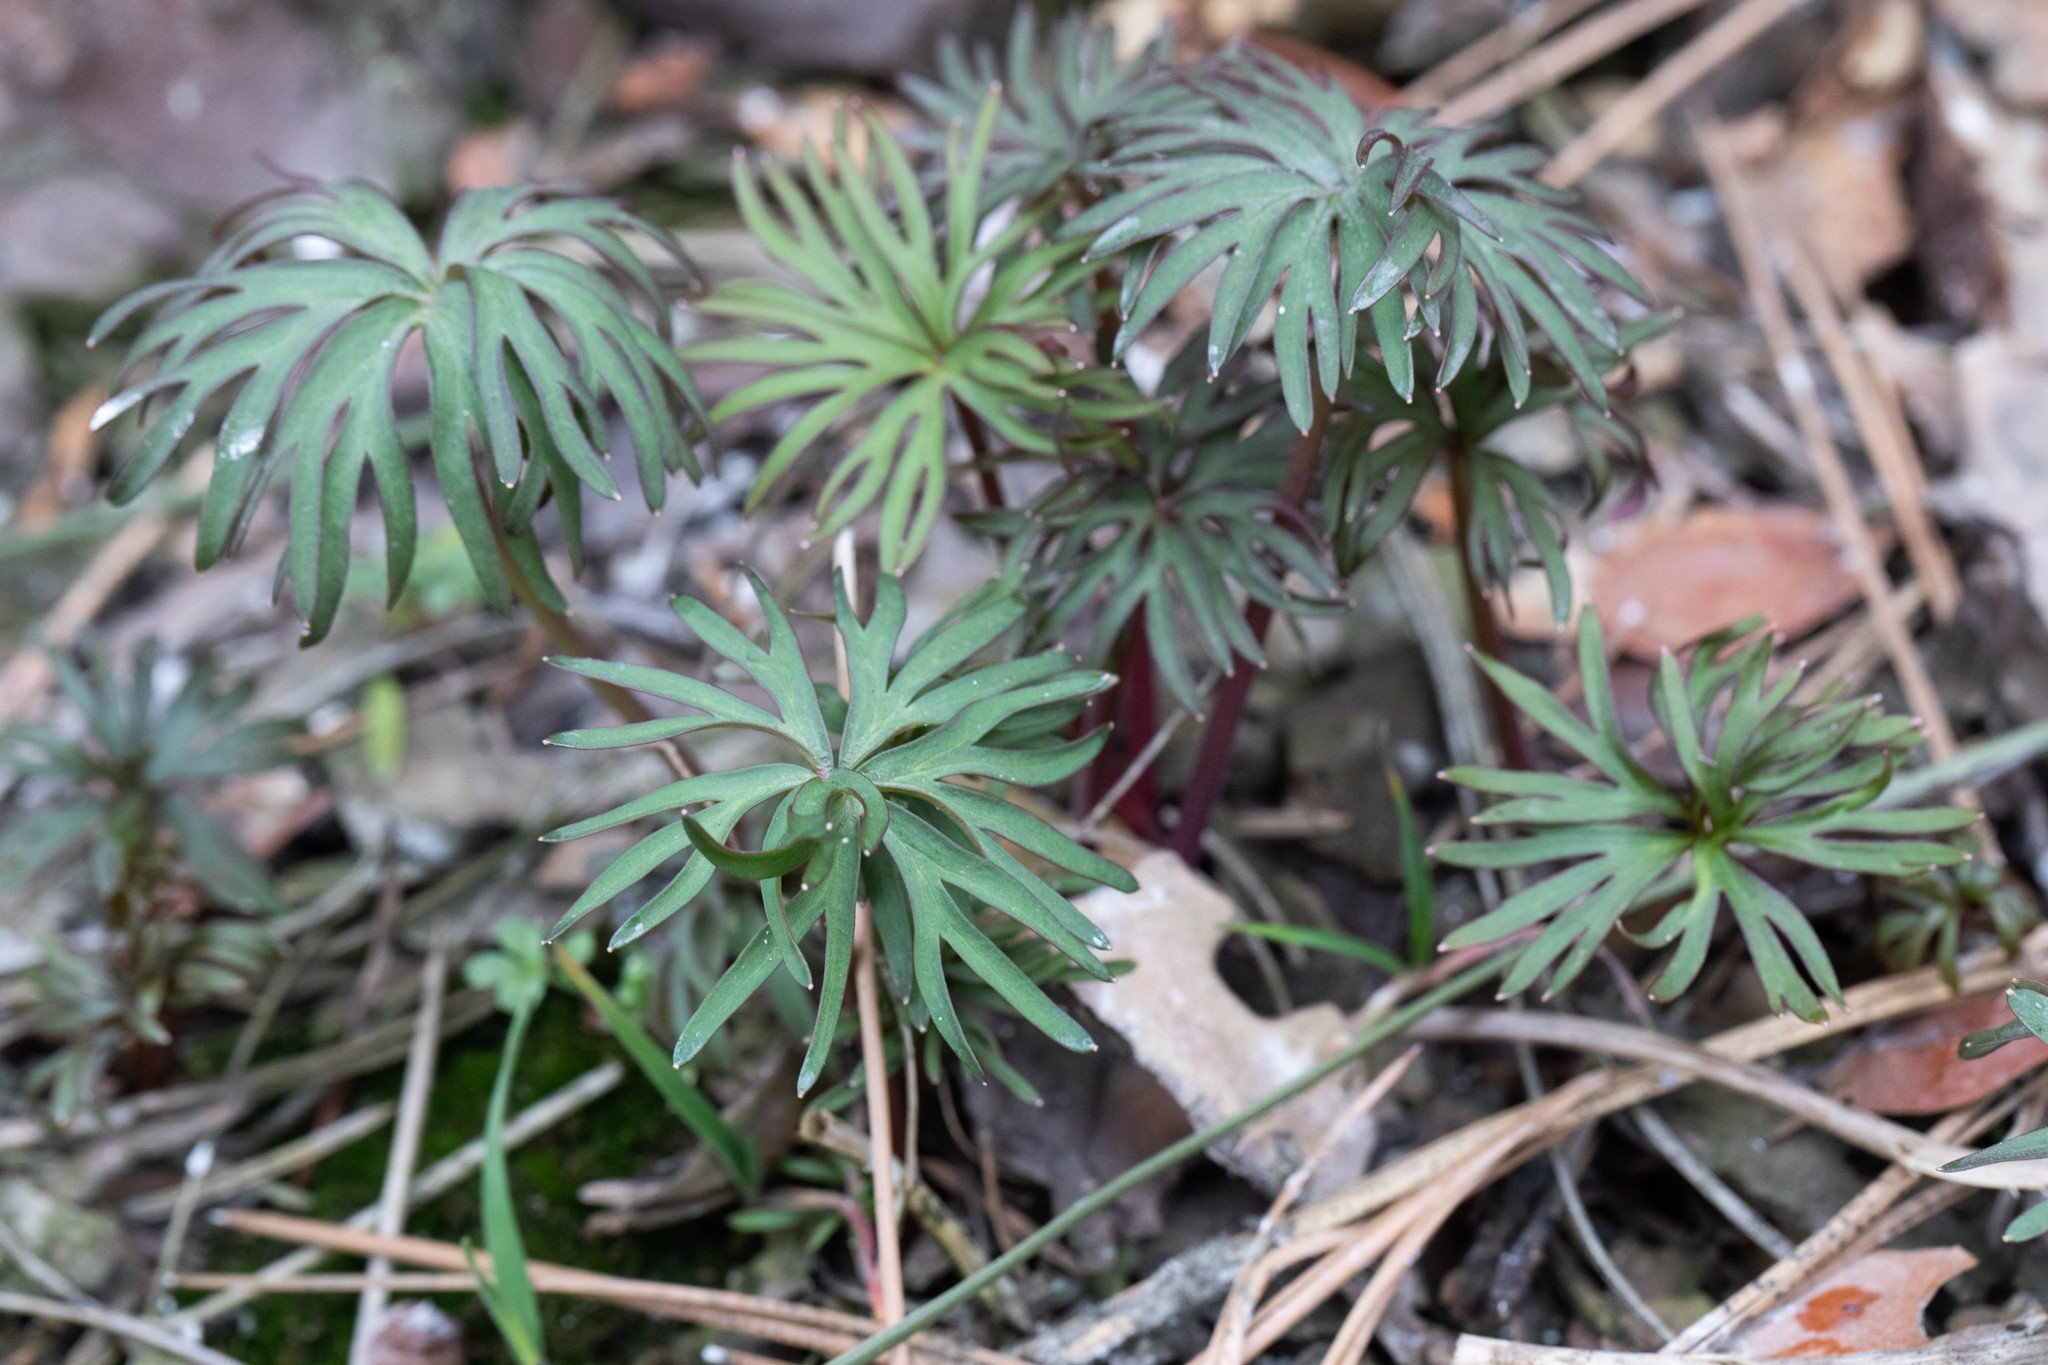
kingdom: Plantae
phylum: Tracheophyta
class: Magnoliopsida
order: Ranunculales
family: Ranunculaceae
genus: Delphinium
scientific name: Delphinium nuttallianum
